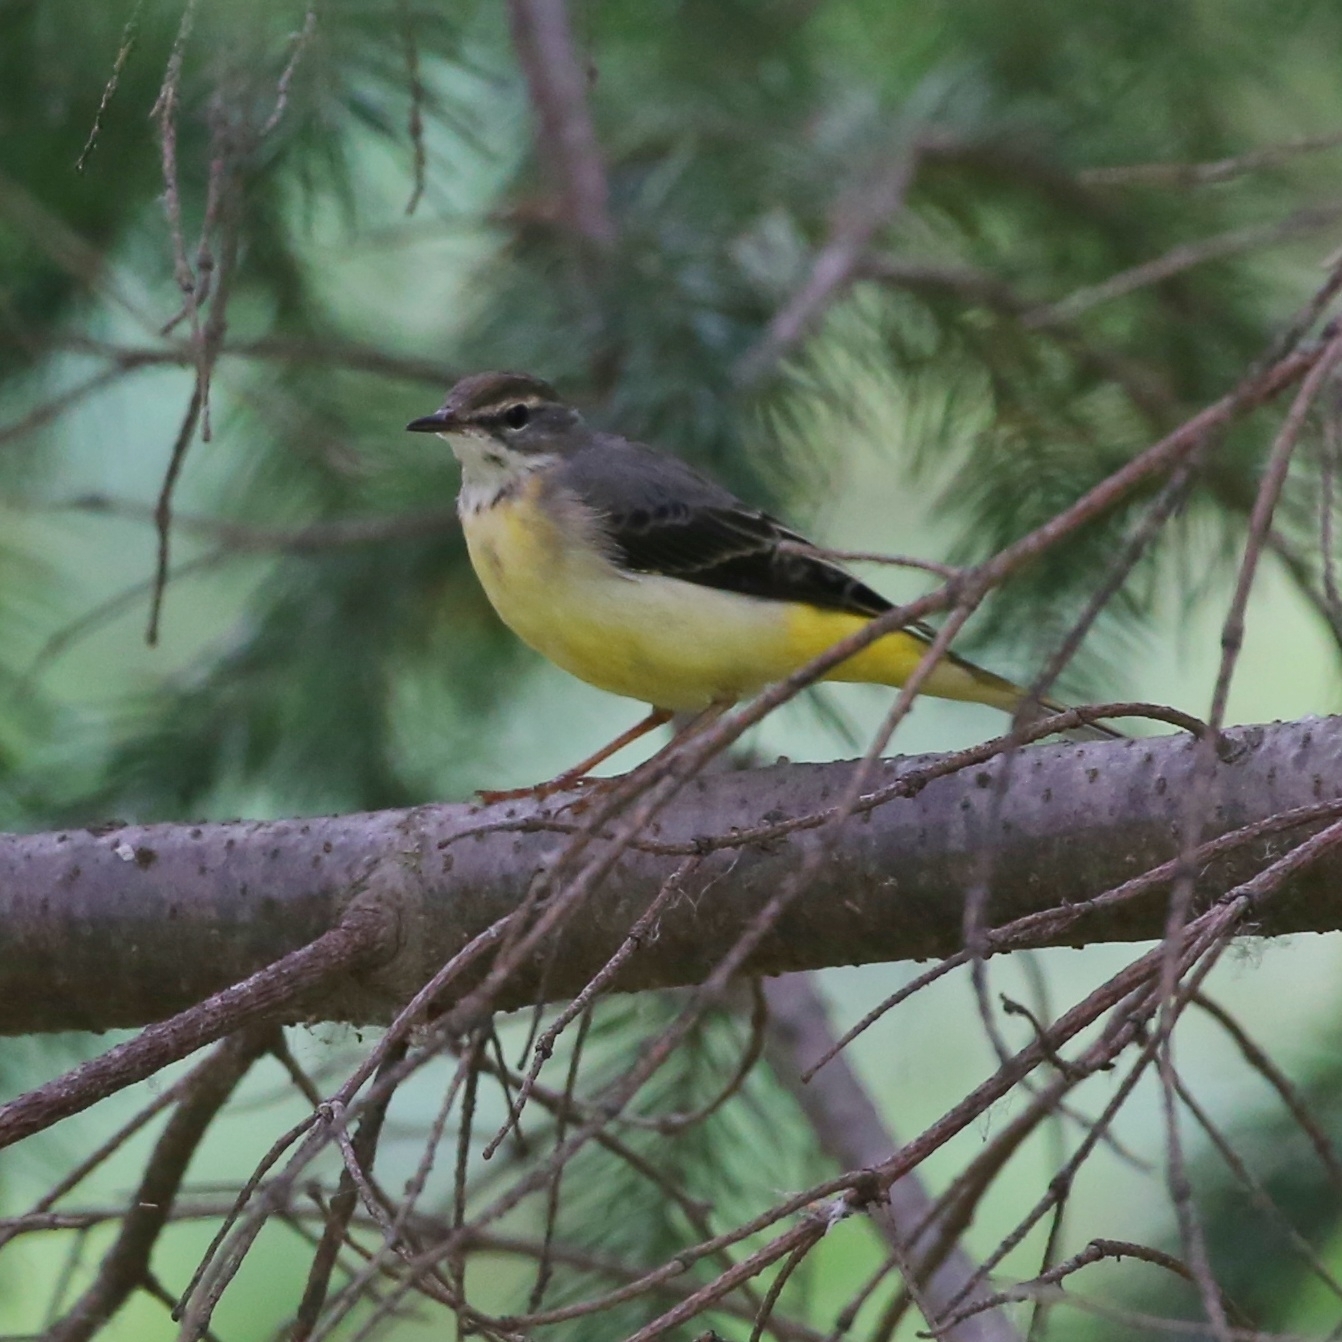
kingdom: Animalia
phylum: Chordata
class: Aves
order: Passeriformes
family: Motacillidae
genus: Motacilla
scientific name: Motacilla cinerea
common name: Grey wagtail
